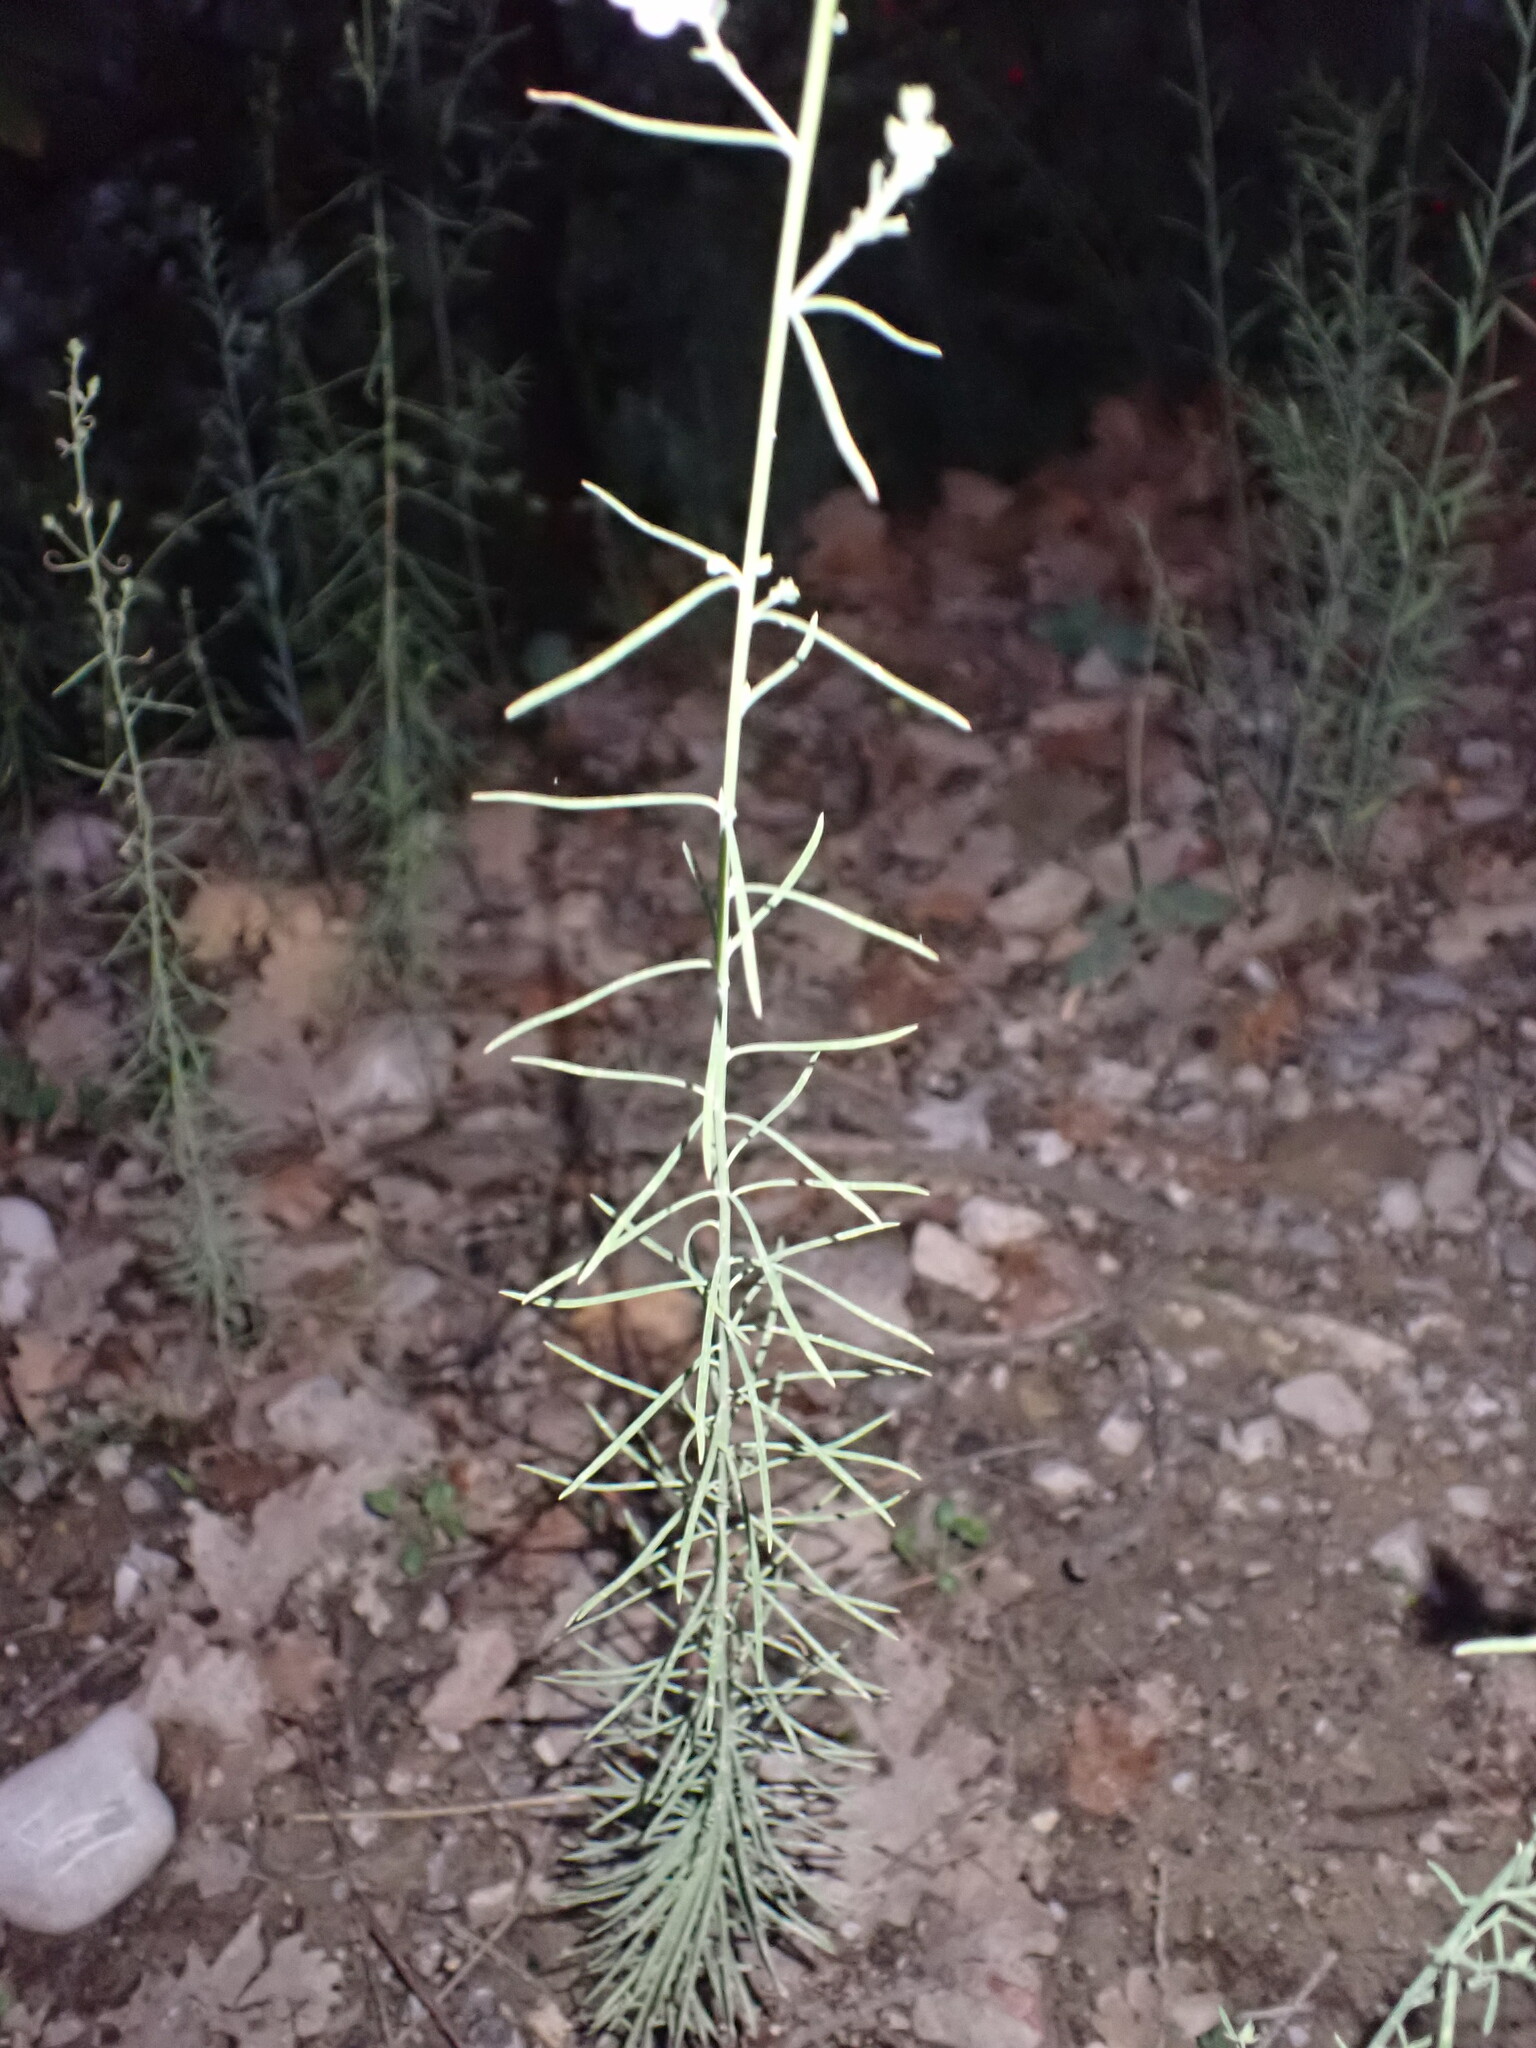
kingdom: Plantae
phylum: Tracheophyta
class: Magnoliopsida
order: Lamiales
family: Plantaginaceae
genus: Linaria
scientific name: Linaria repens
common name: Pale toadflax
